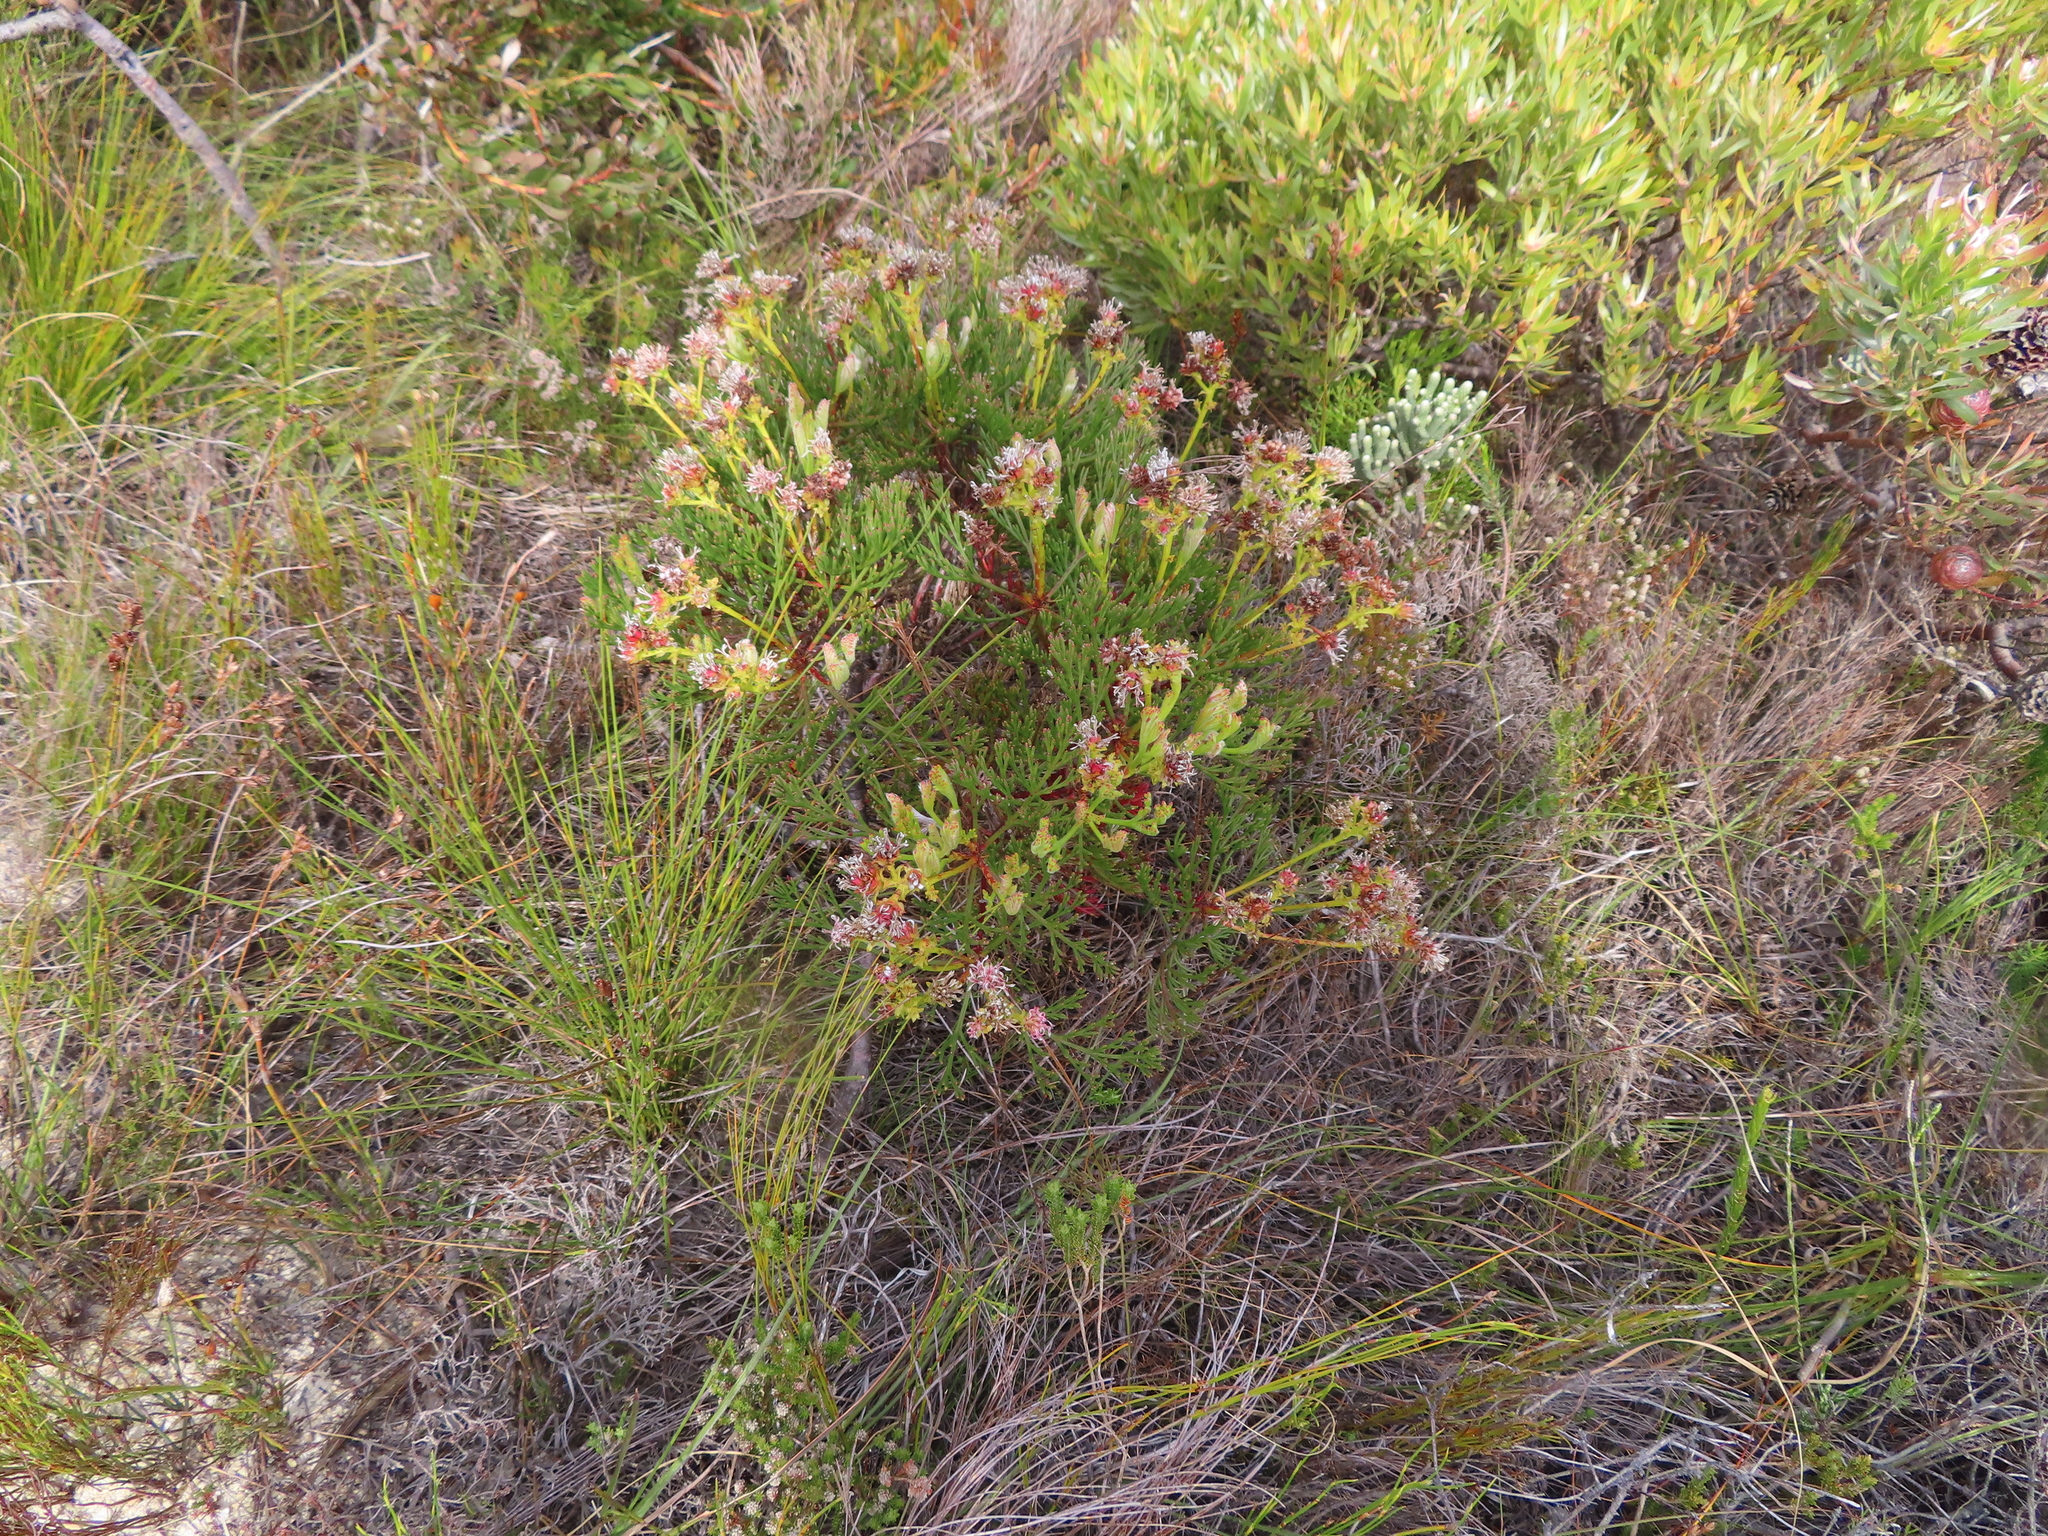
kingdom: Plantae
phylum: Tracheophyta
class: Magnoliopsida
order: Proteales
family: Proteaceae
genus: Serruria
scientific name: Serruria elongata
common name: Long-stalk spiderhead
